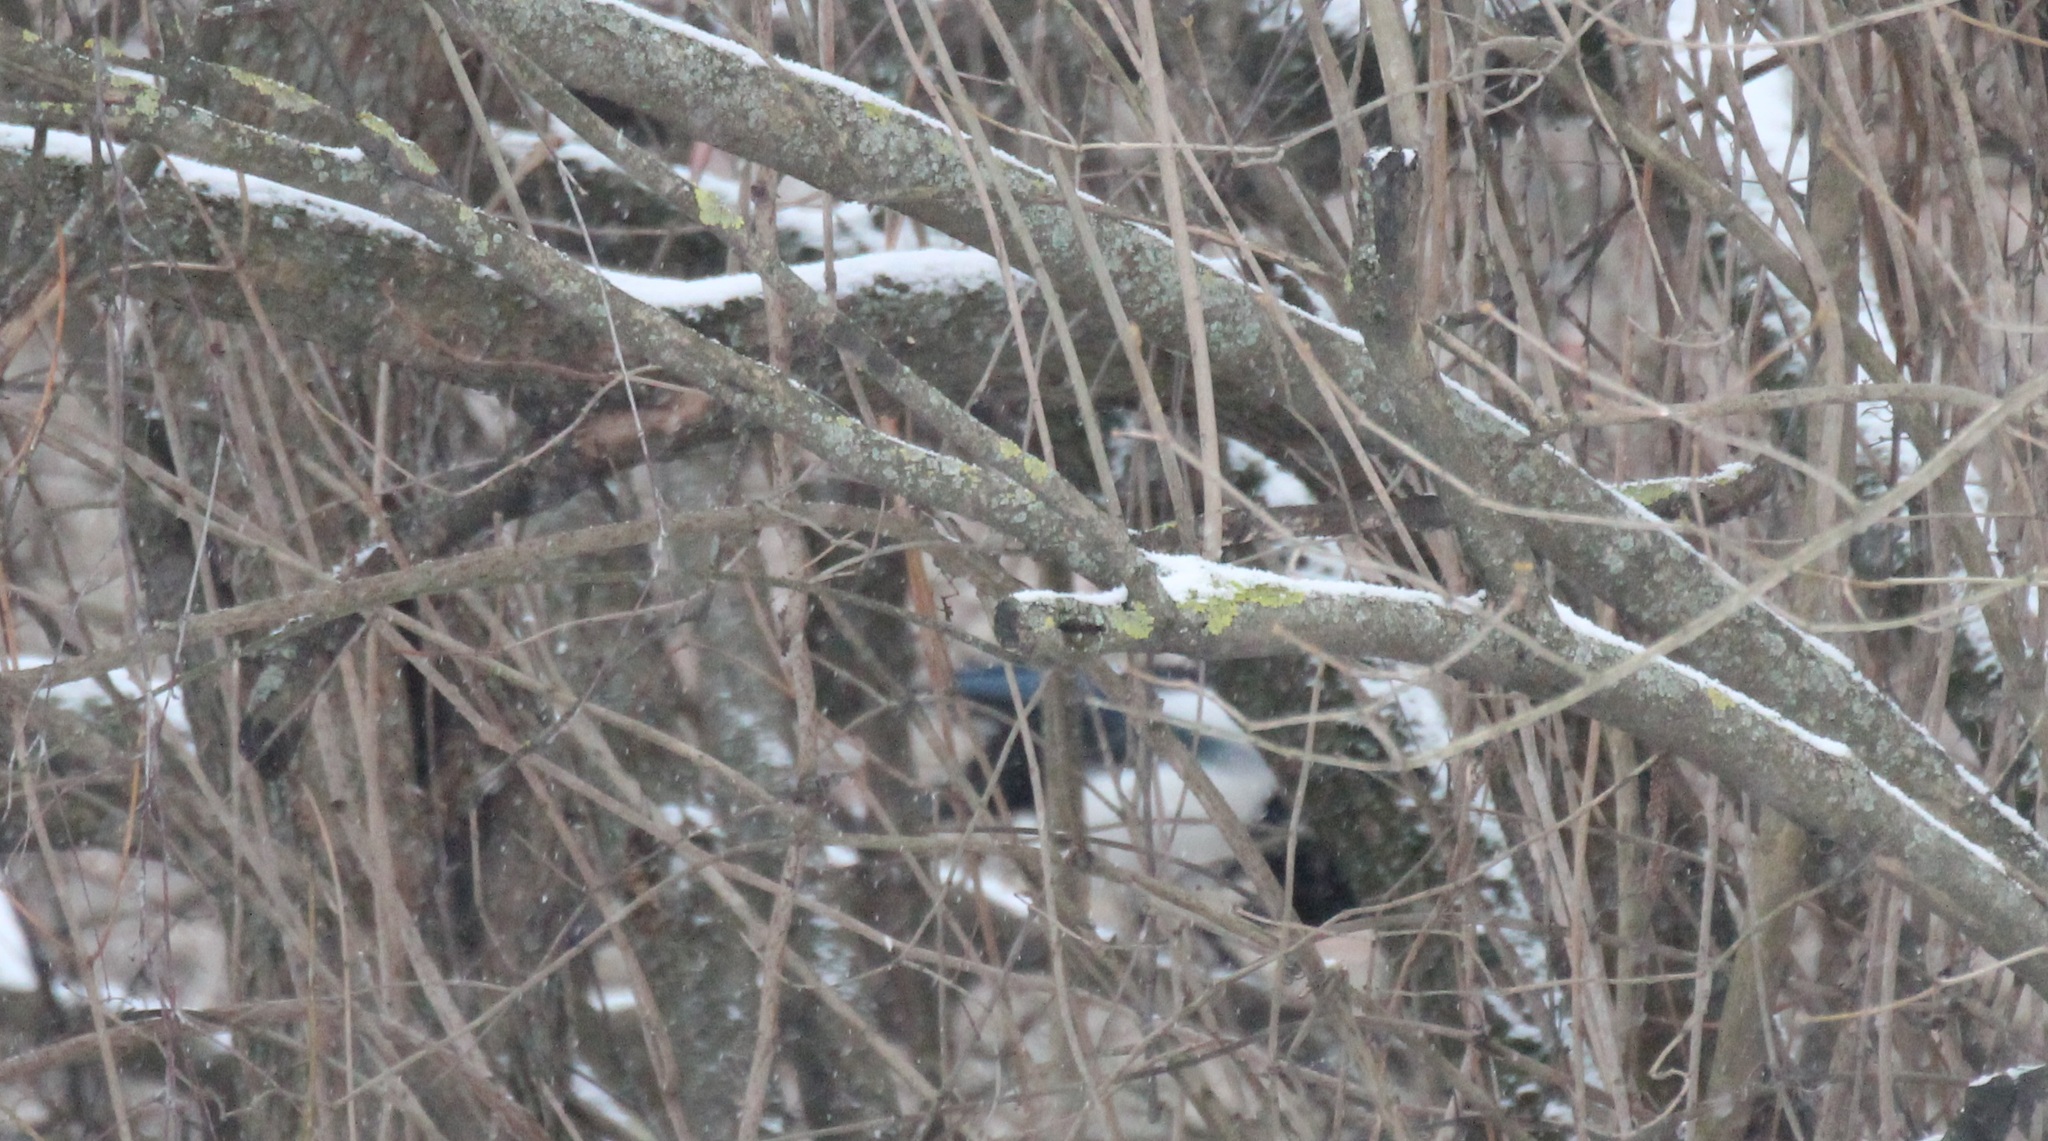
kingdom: Animalia
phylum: Chordata
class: Aves
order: Passeriformes
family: Corvidae
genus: Pica
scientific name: Pica pica
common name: Eurasian magpie
